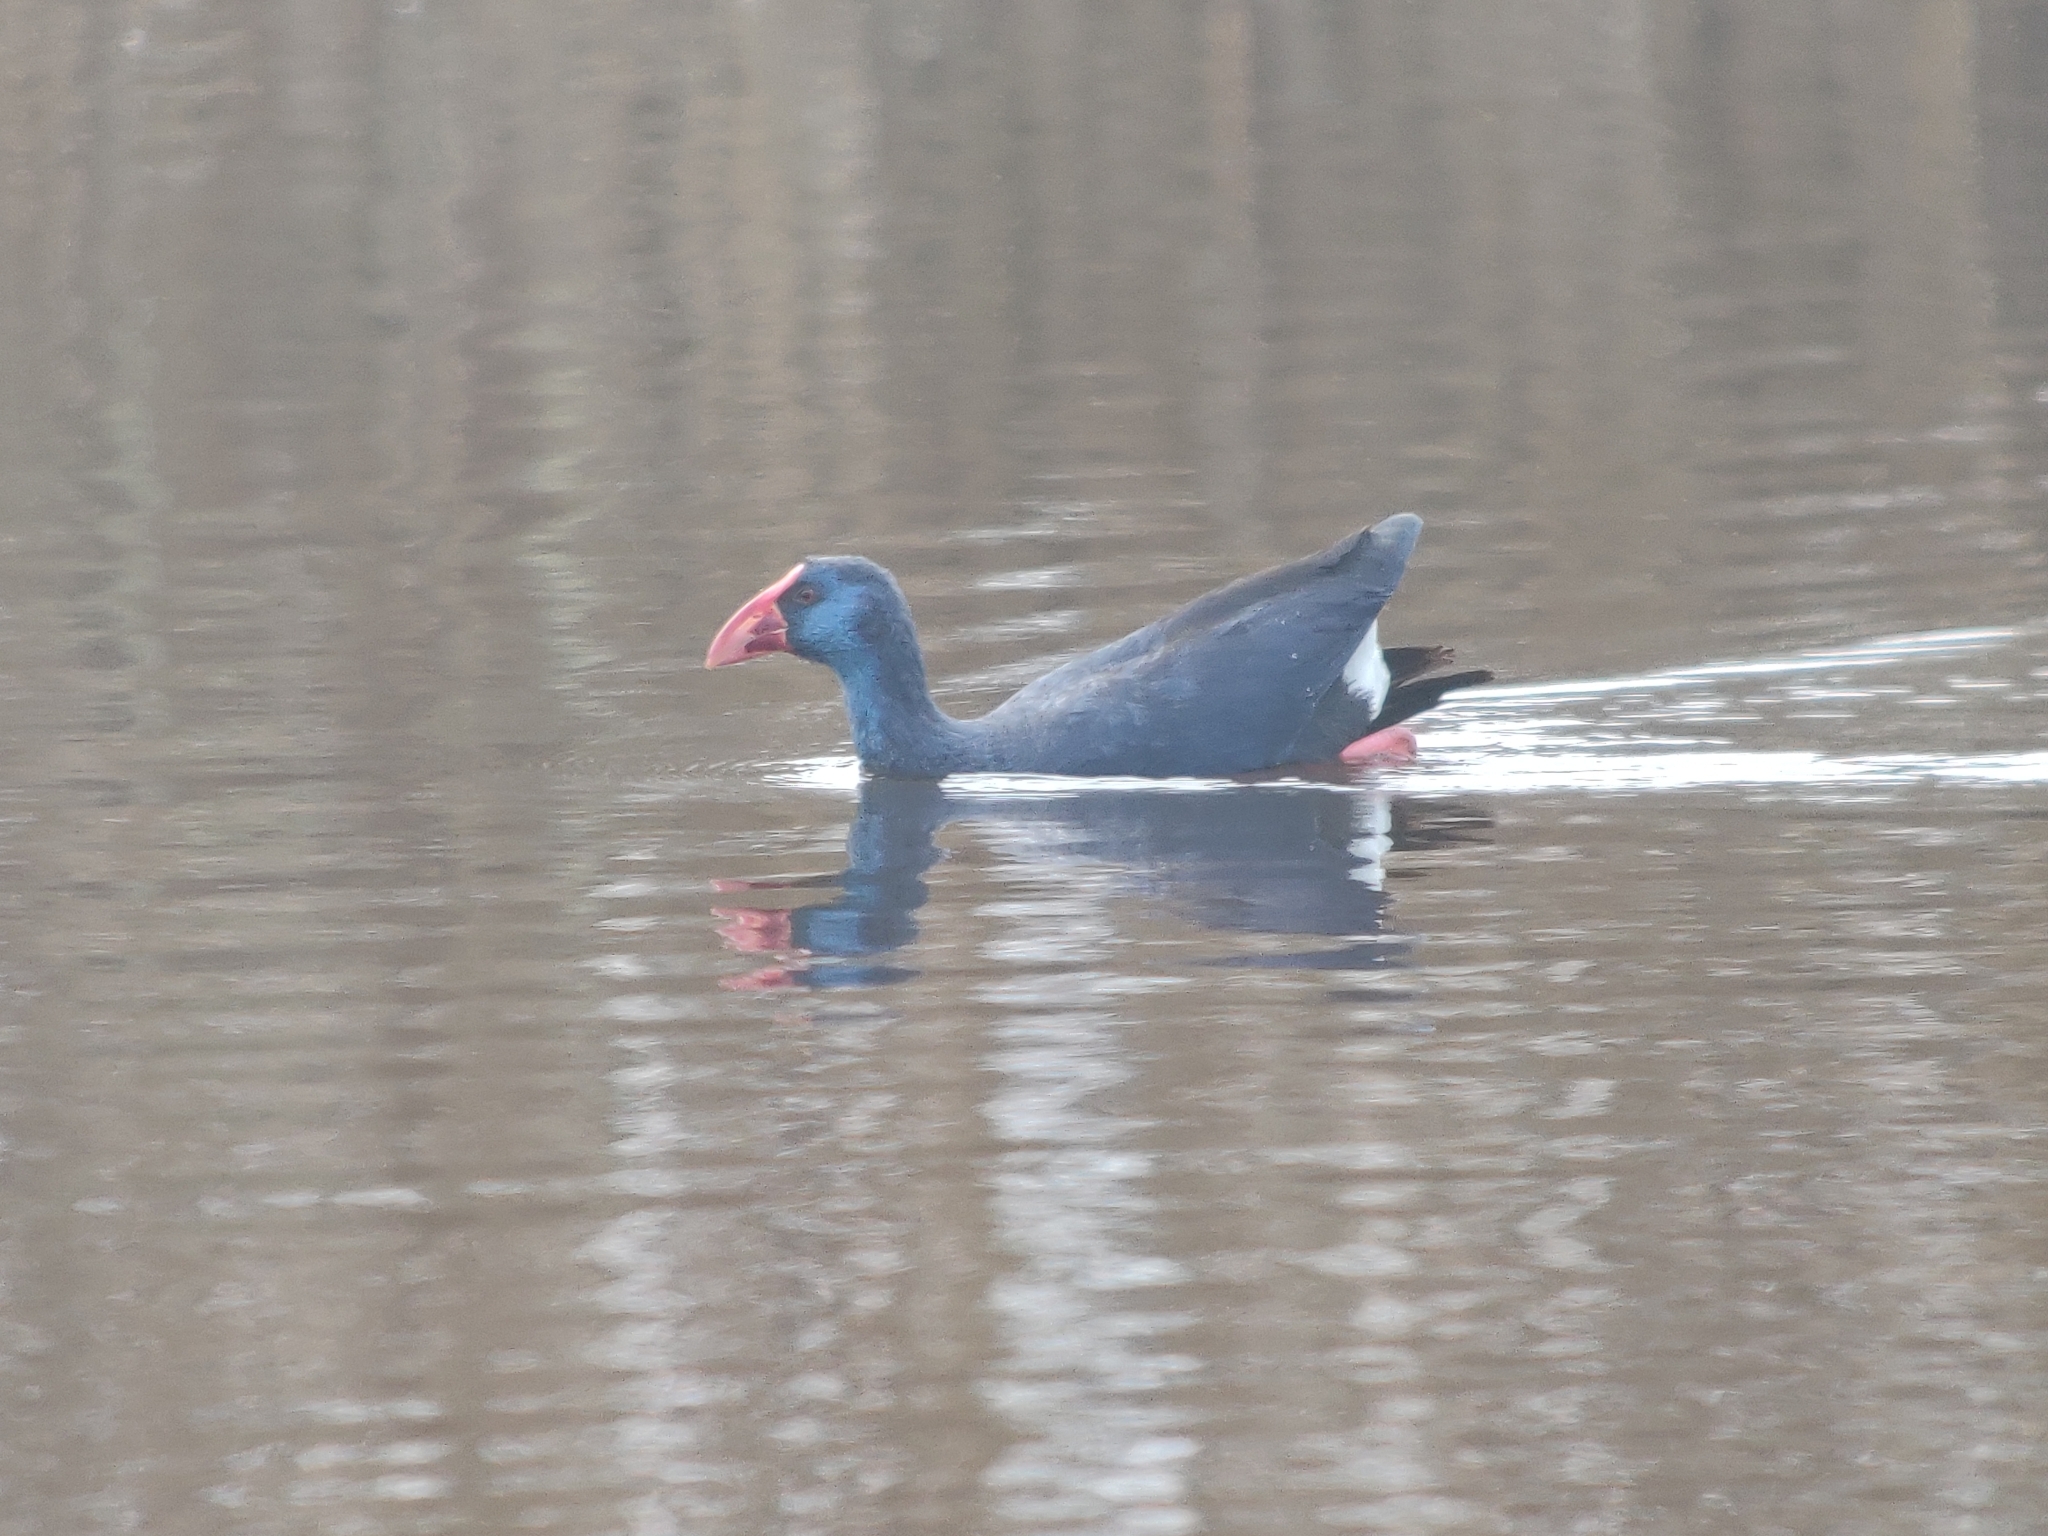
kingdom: Animalia
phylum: Chordata
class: Aves
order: Gruiformes
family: Rallidae
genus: Porphyrio
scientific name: Porphyrio porphyrio
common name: Purple swamphen
